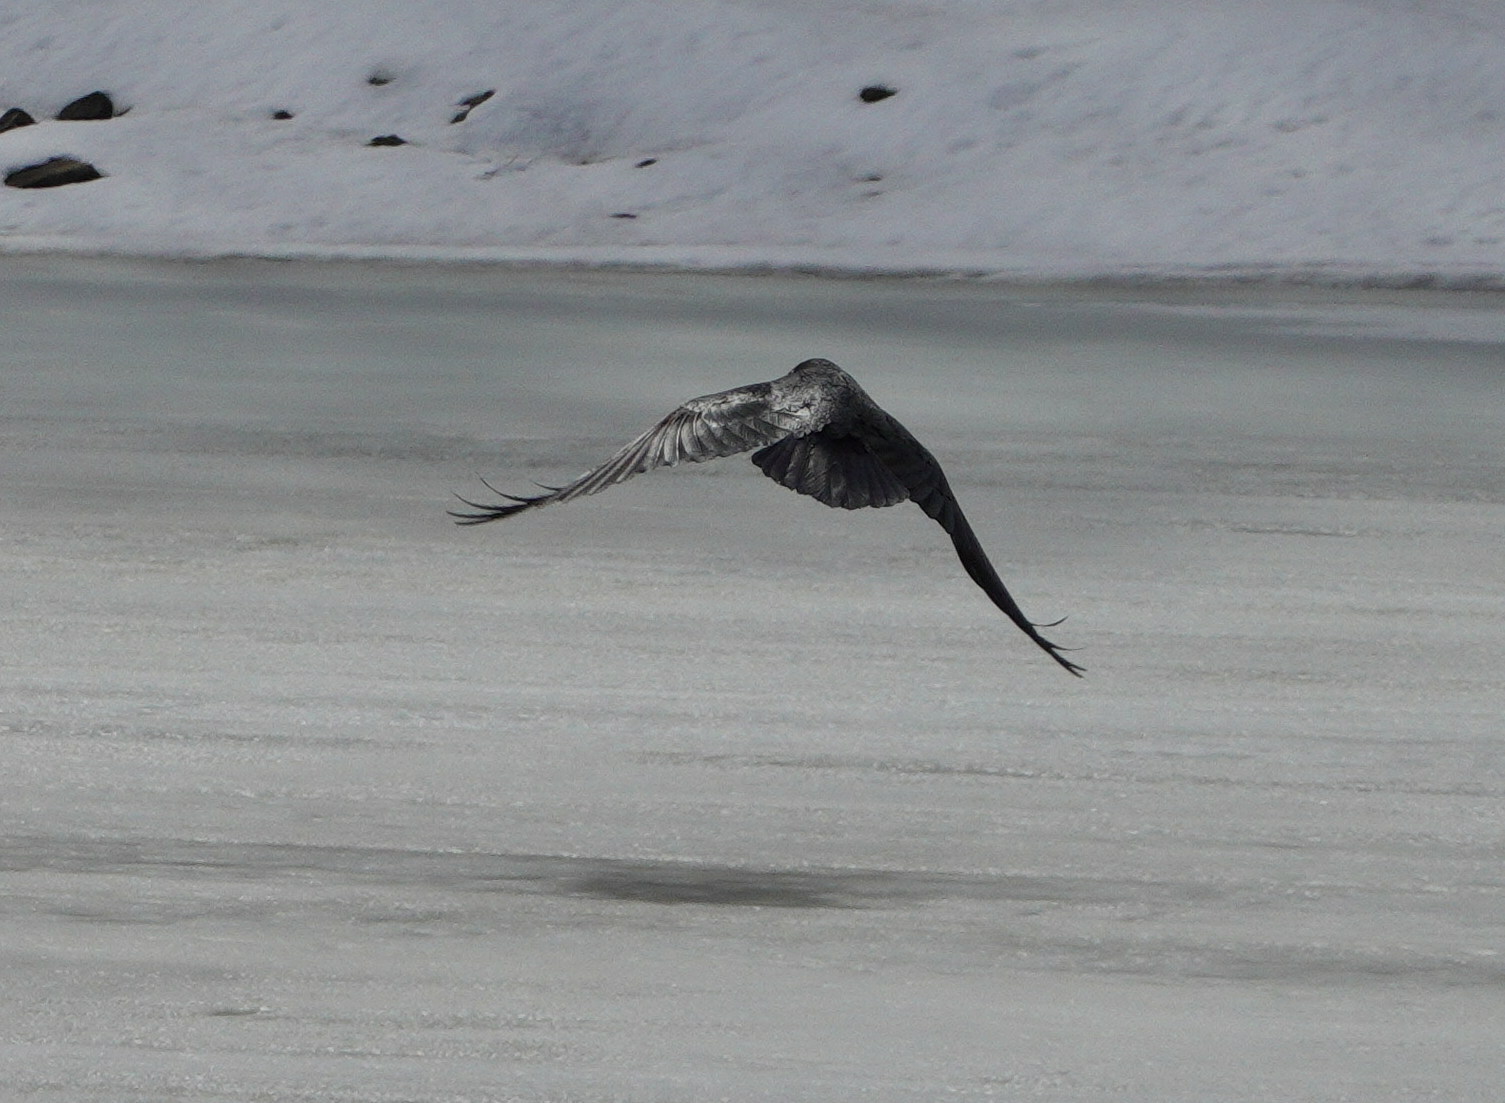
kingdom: Animalia
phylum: Chordata
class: Aves
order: Passeriformes
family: Corvidae
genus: Corvus
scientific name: Corvus corax
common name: Common raven
